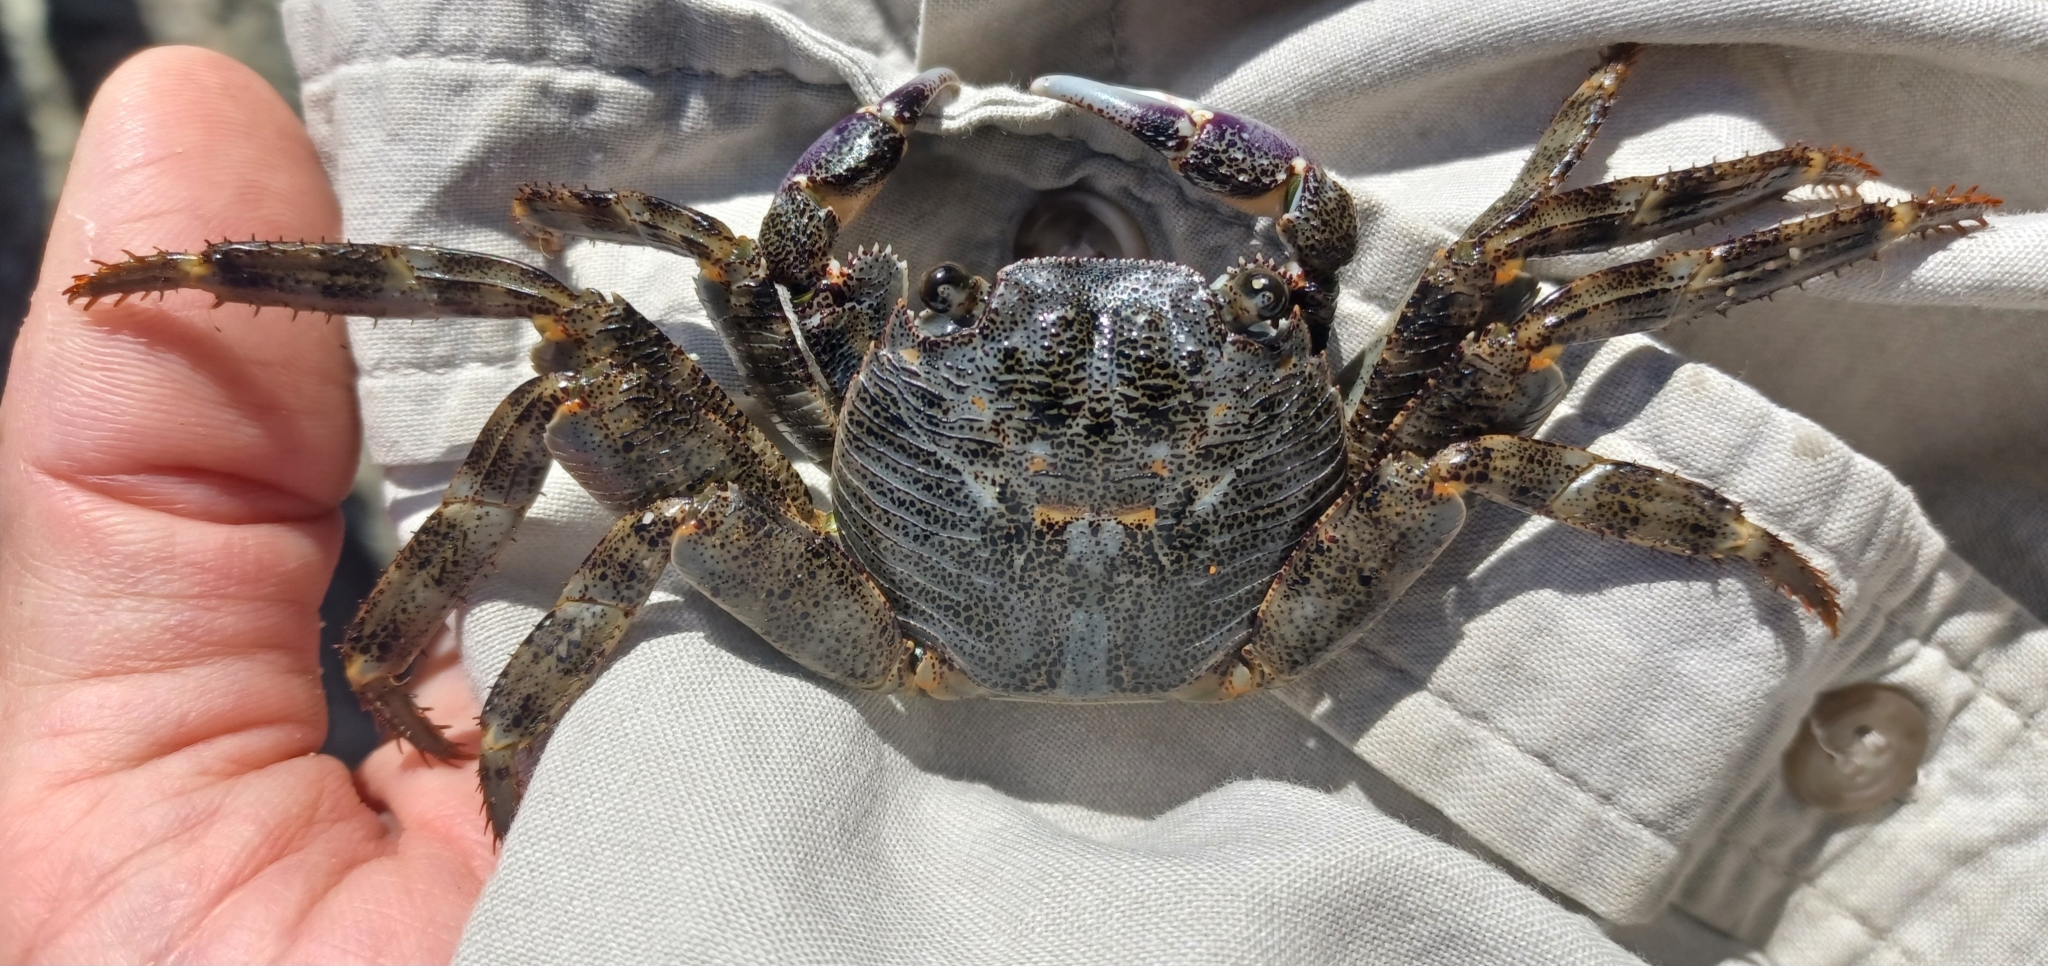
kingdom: Animalia
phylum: Arthropoda
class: Malacostraca
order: Decapoda
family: Grapsidae
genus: Leptograpsus
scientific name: Leptograpsus variegatus
